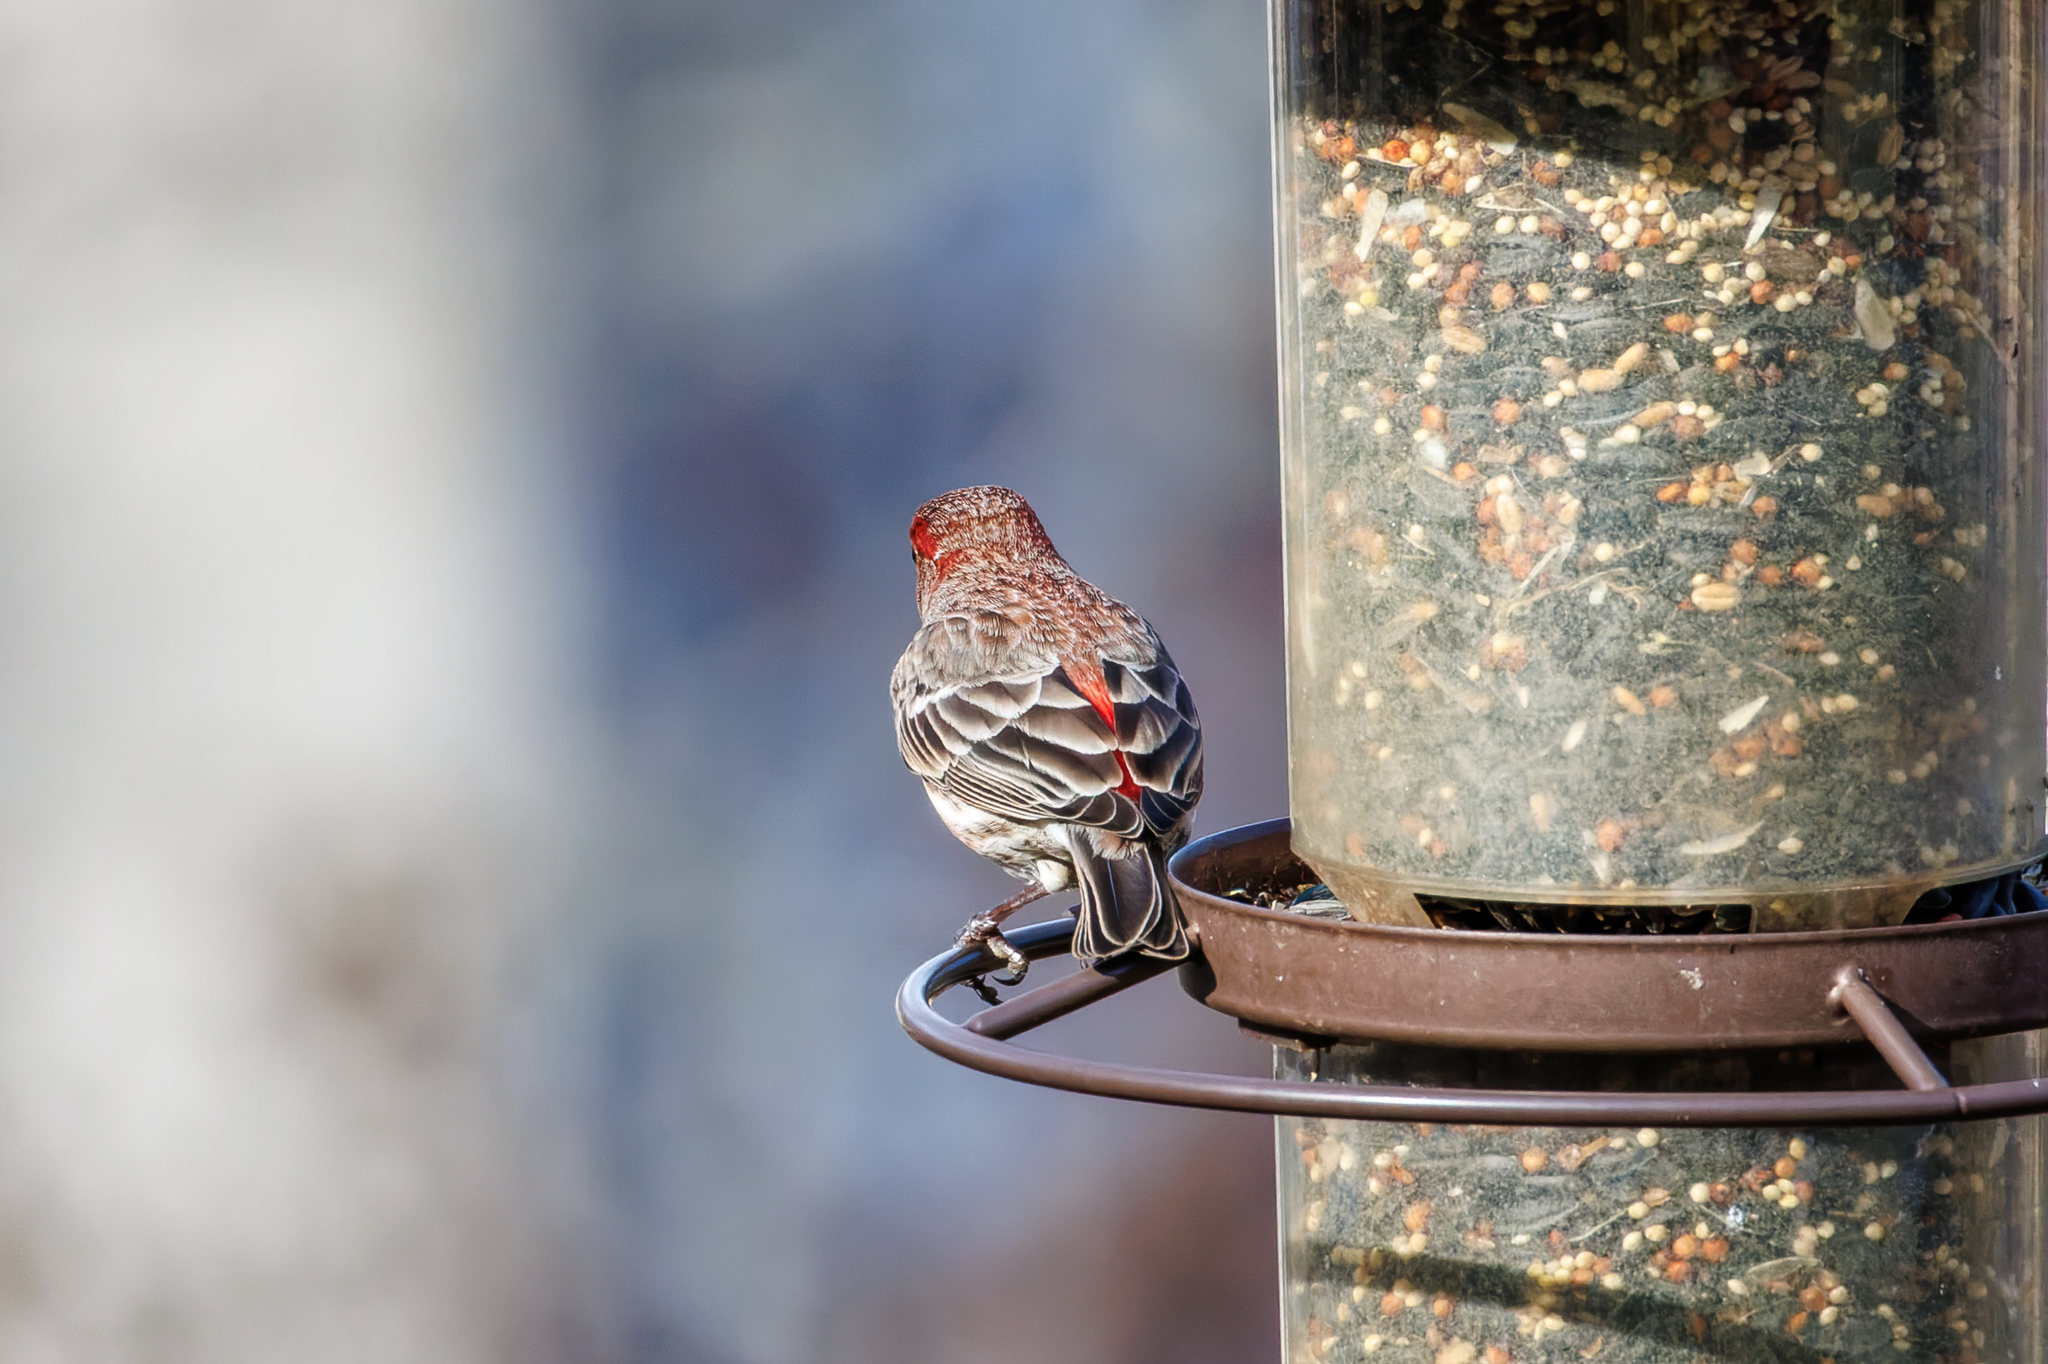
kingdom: Animalia
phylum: Chordata
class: Aves
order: Passeriformes
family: Fringillidae
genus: Haemorhous
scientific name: Haemorhous mexicanus
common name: House finch
